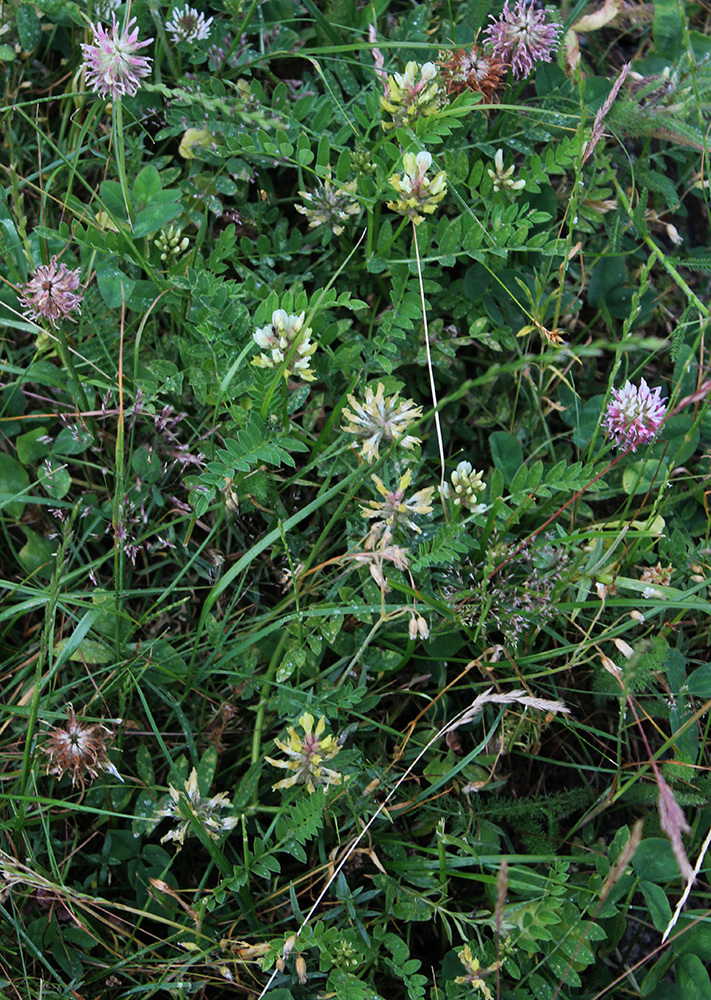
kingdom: Plantae
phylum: Tracheophyta
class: Magnoliopsida
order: Fabales
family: Fabaceae
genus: Astragalus
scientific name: Astragalus fragrans
